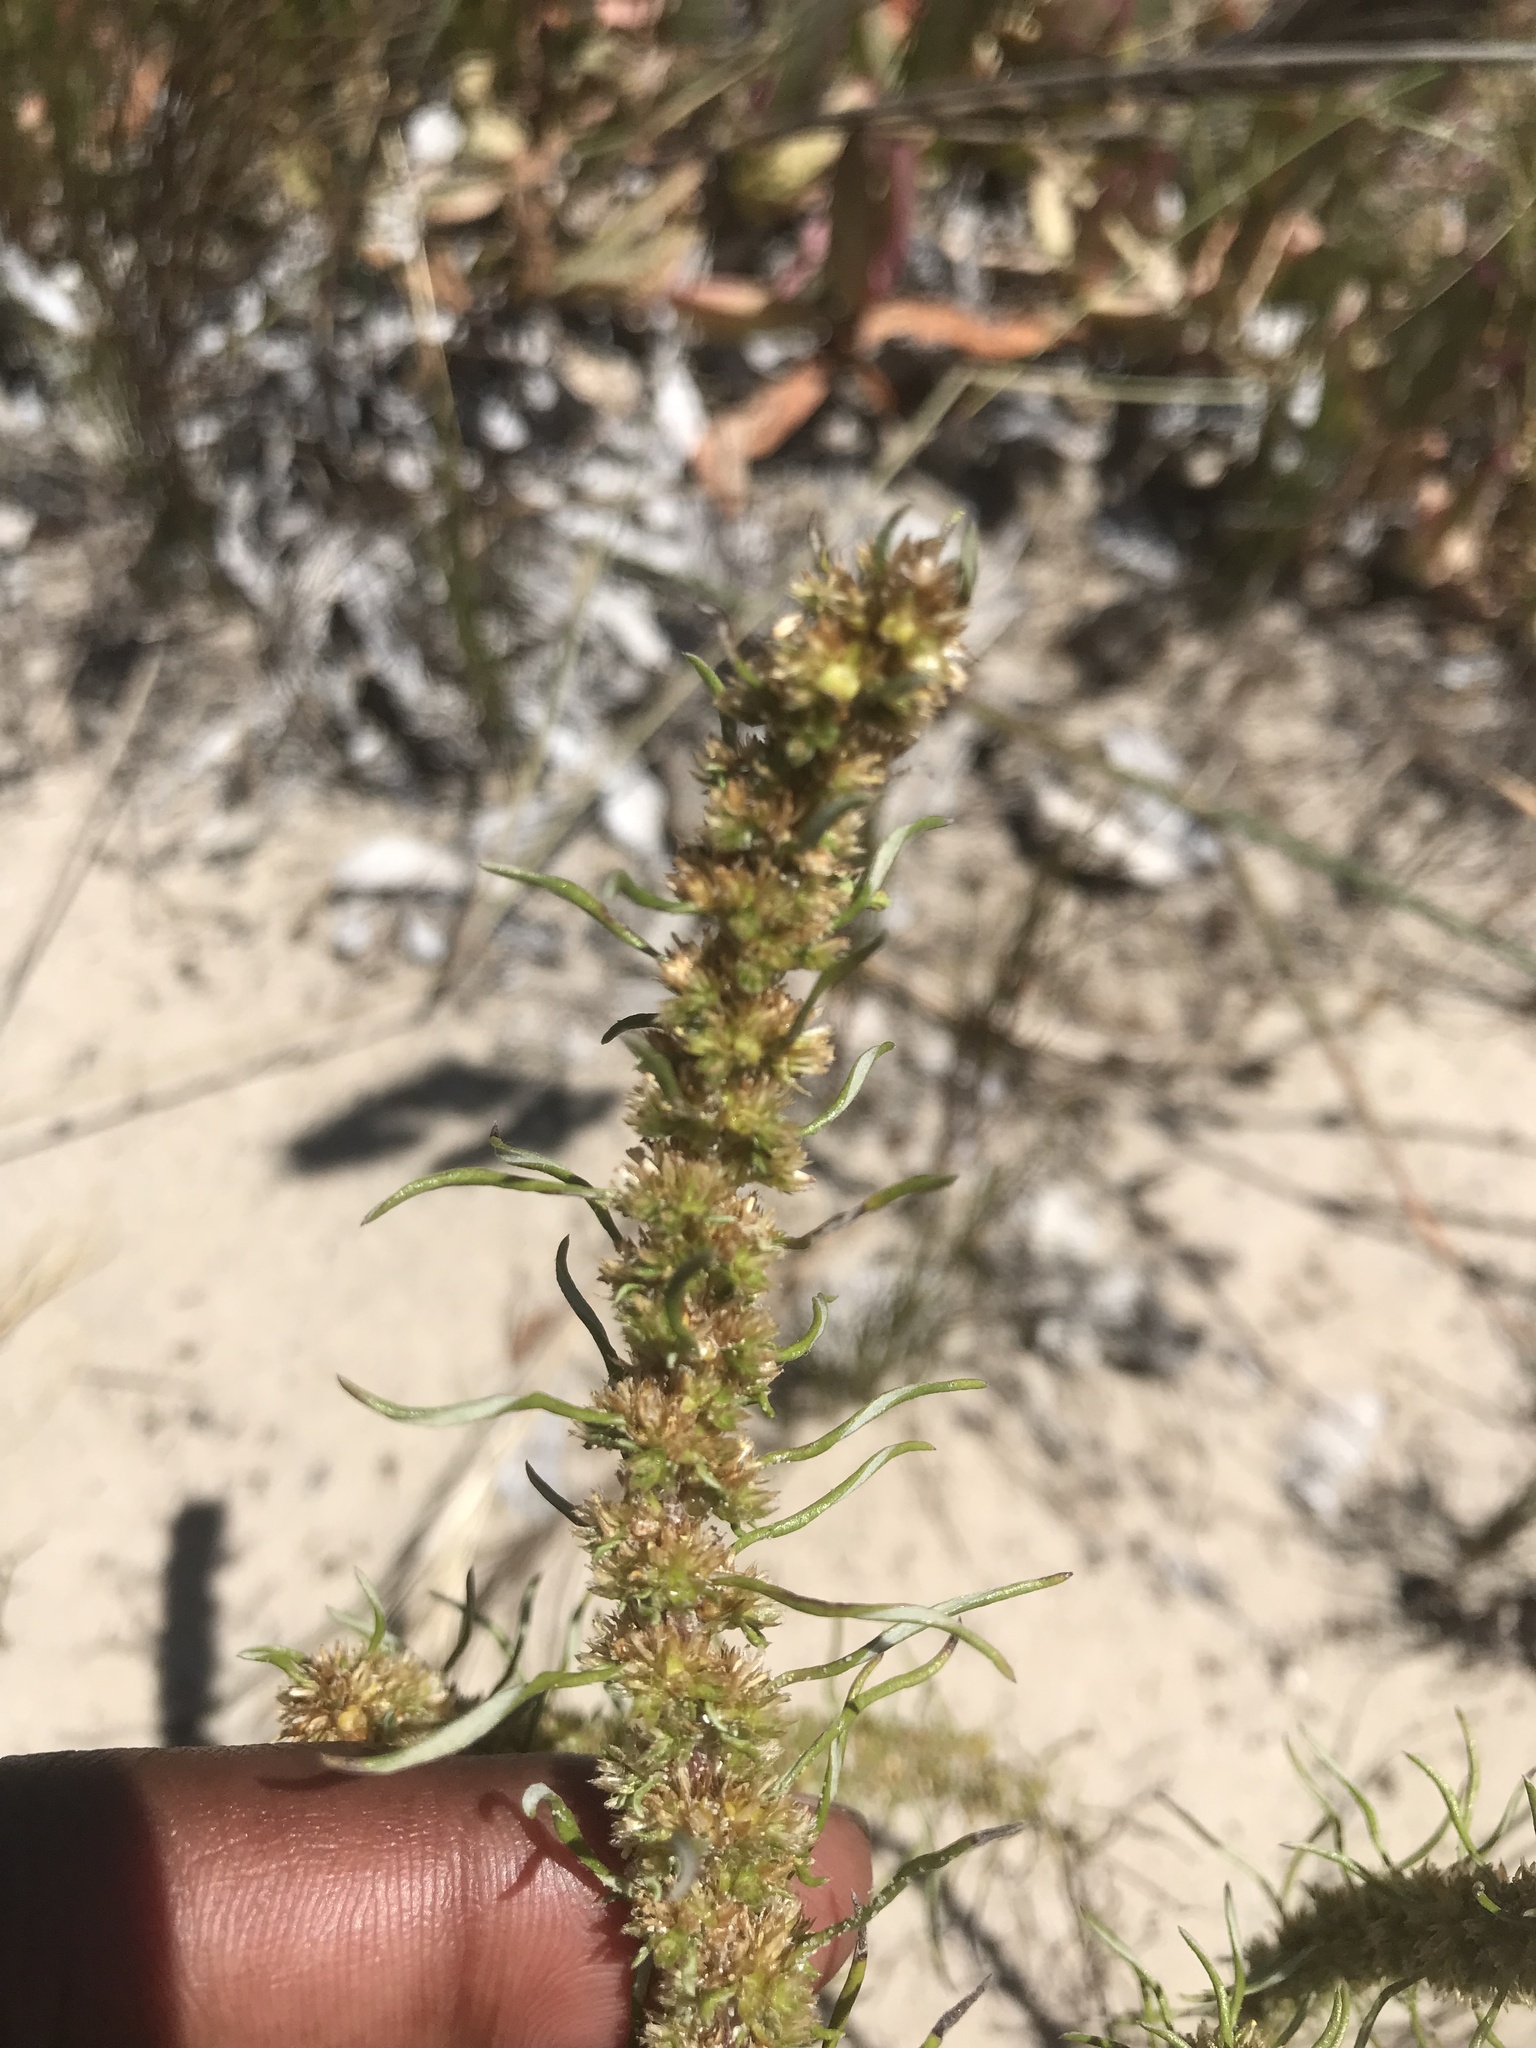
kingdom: Plantae
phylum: Tracheophyta
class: Magnoliopsida
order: Asterales
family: Asteraceae
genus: Ifloga
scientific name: Ifloga polycnemoides
